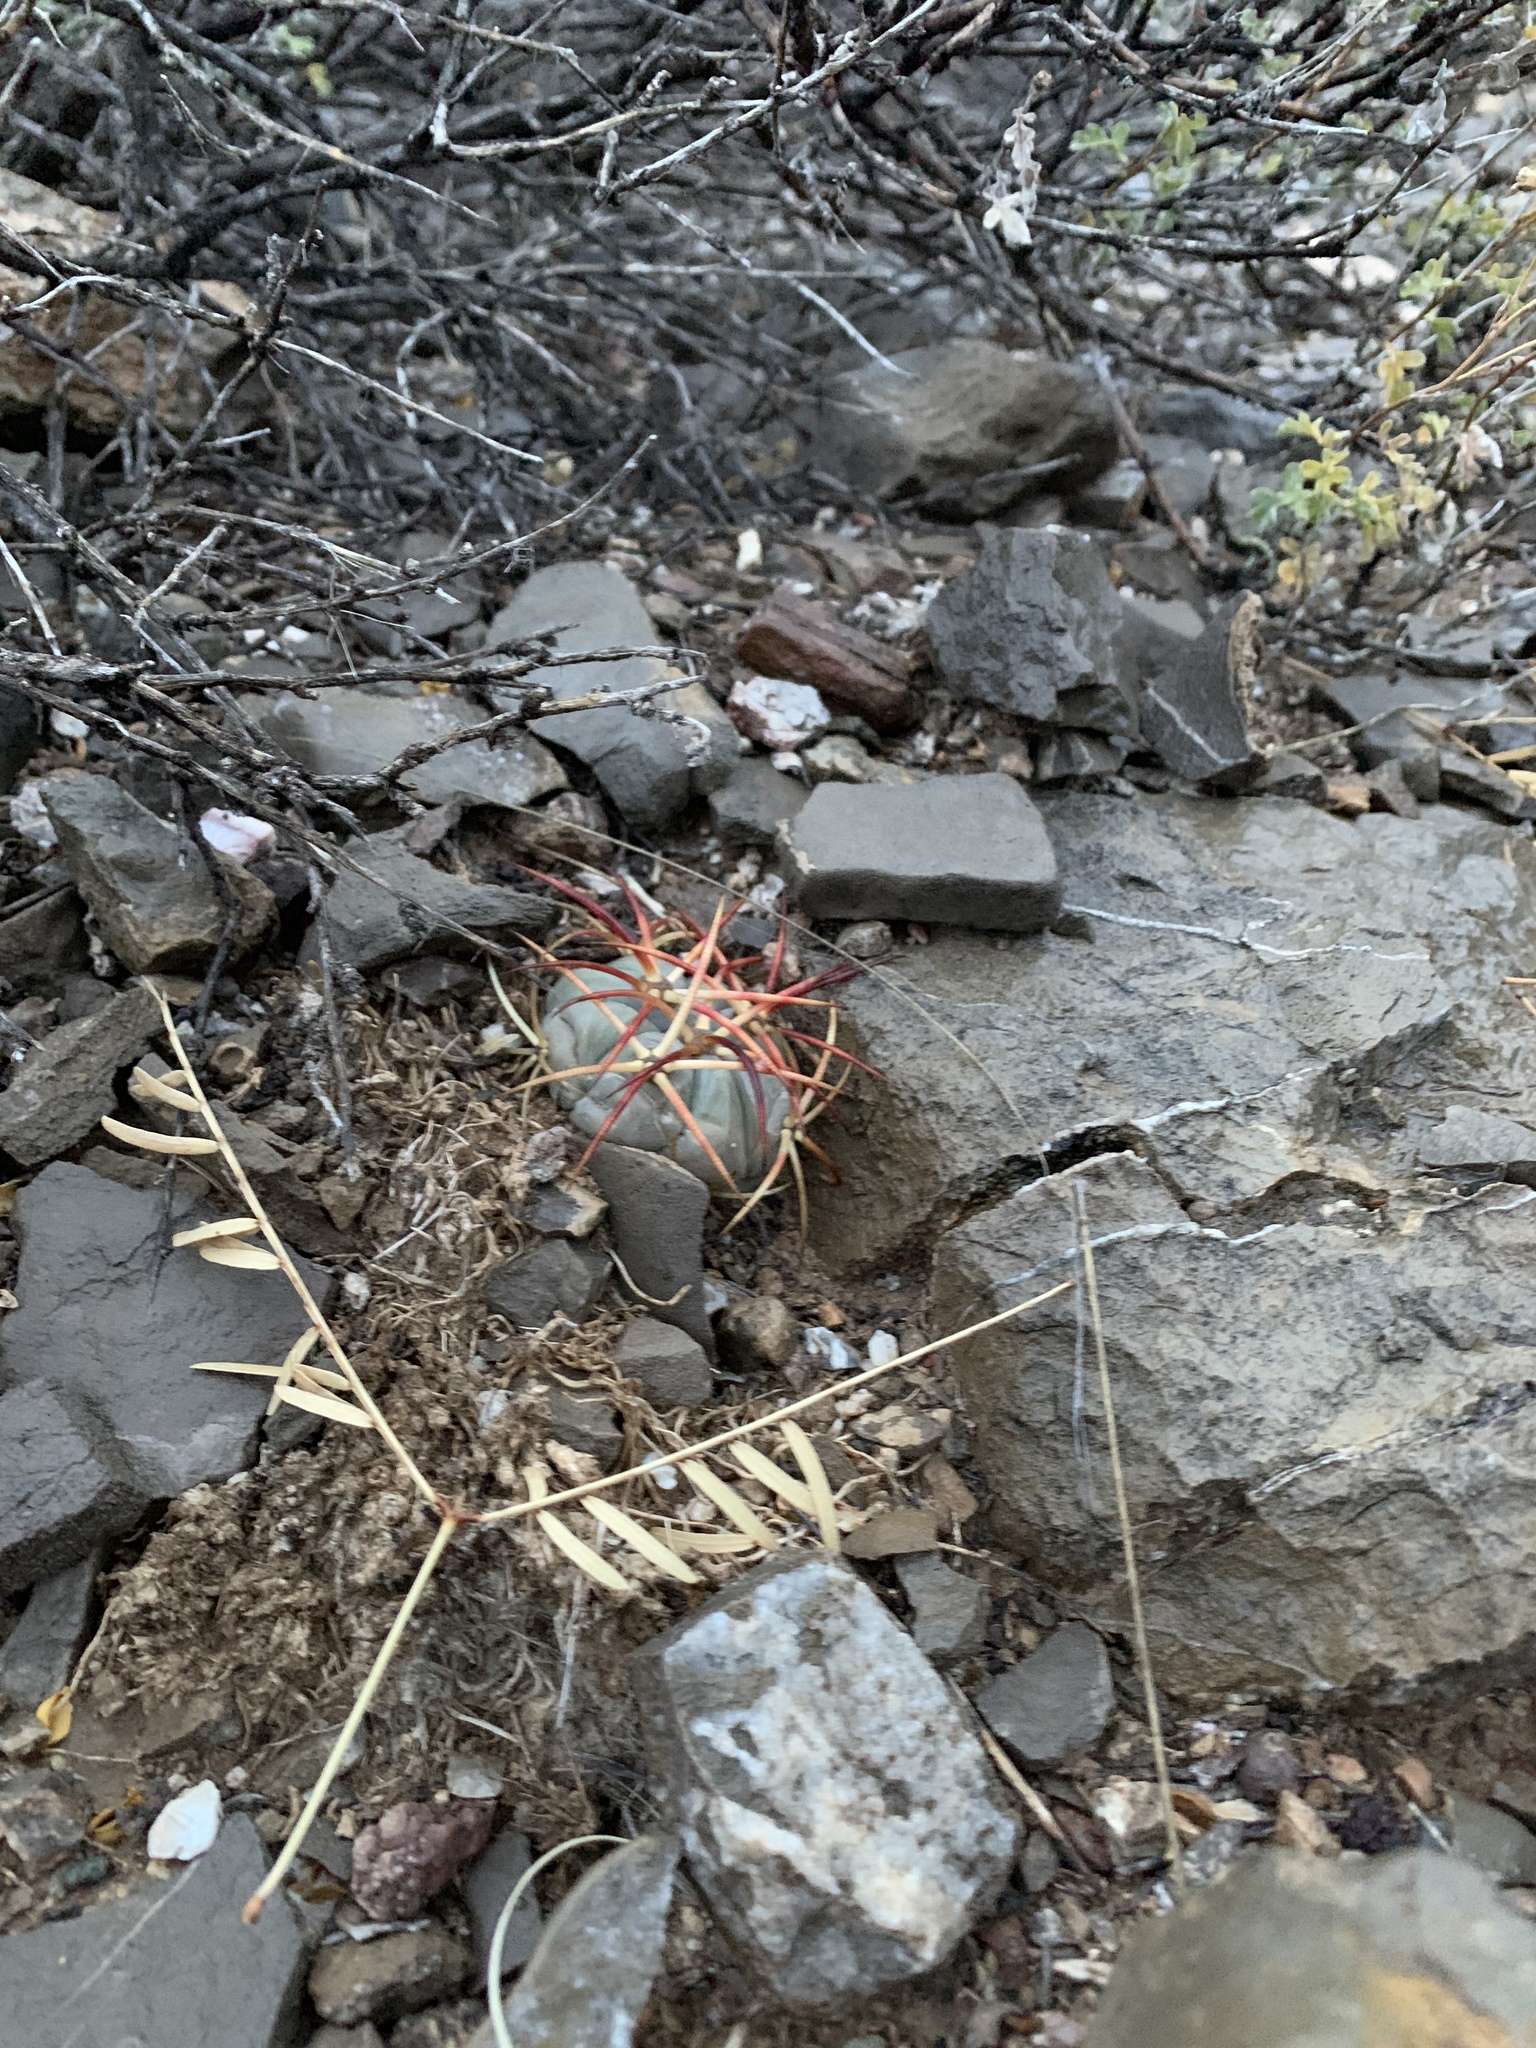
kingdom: Plantae
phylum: Tracheophyta
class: Magnoliopsida
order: Caryophyllales
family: Cactaceae
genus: Echinocactus
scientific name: Echinocactus horizonthalonius
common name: Devilshead
